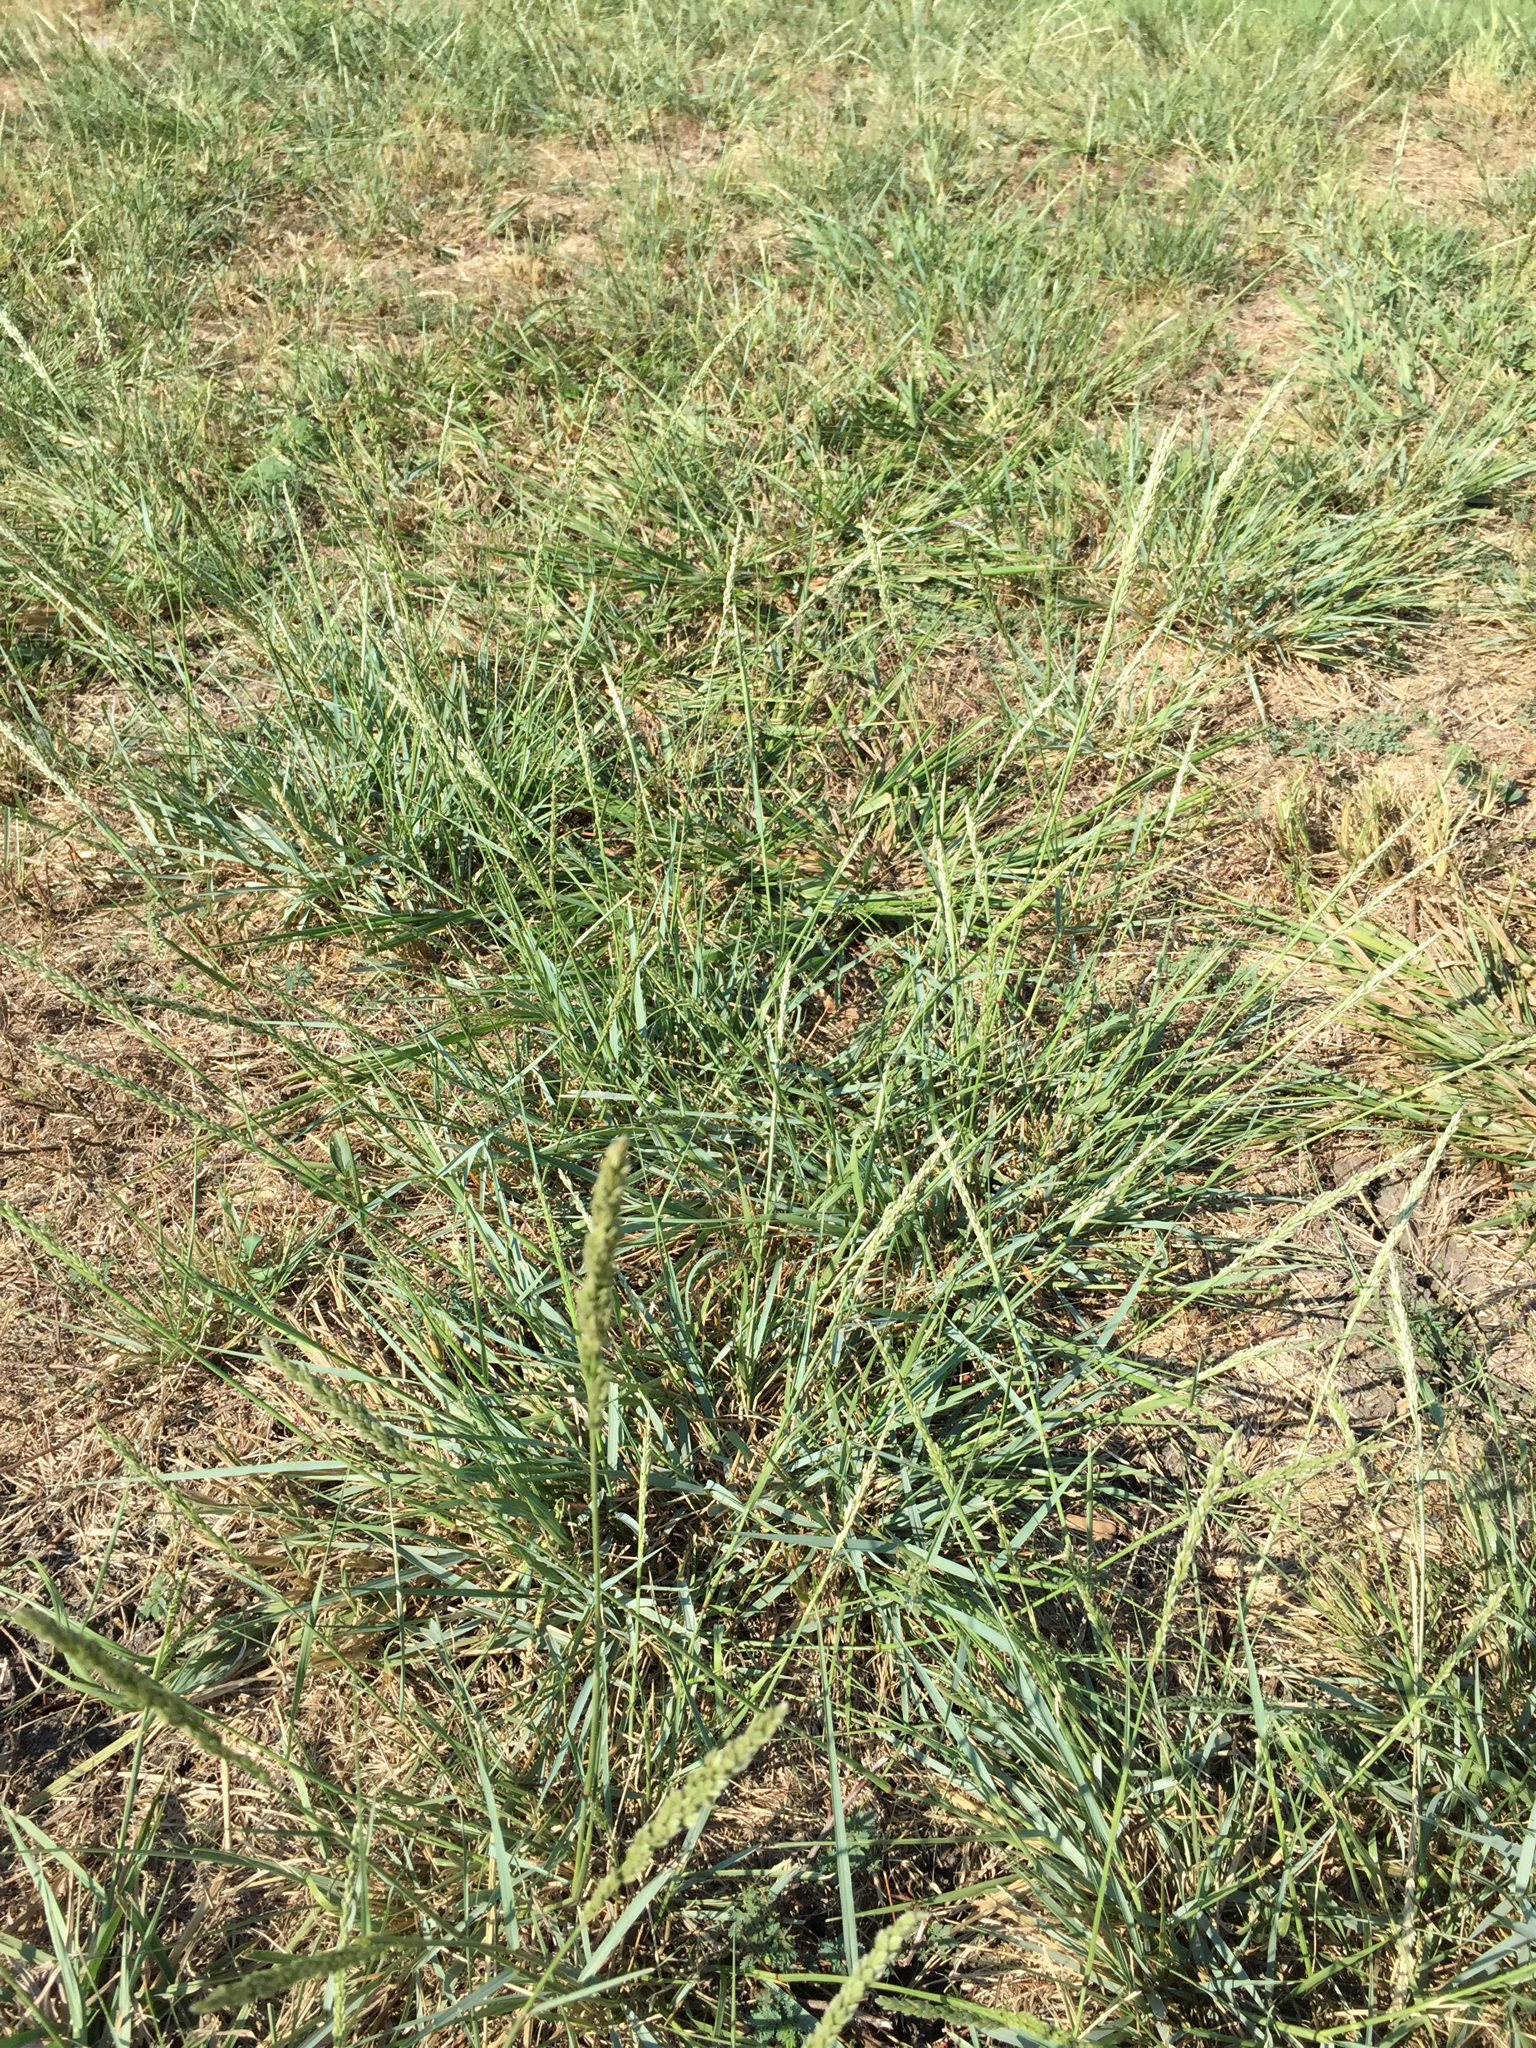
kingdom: Plantae
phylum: Tracheophyta
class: Liliopsida
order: Poales
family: Poaceae
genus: Tridens
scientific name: Tridens albescens
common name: White tridens
